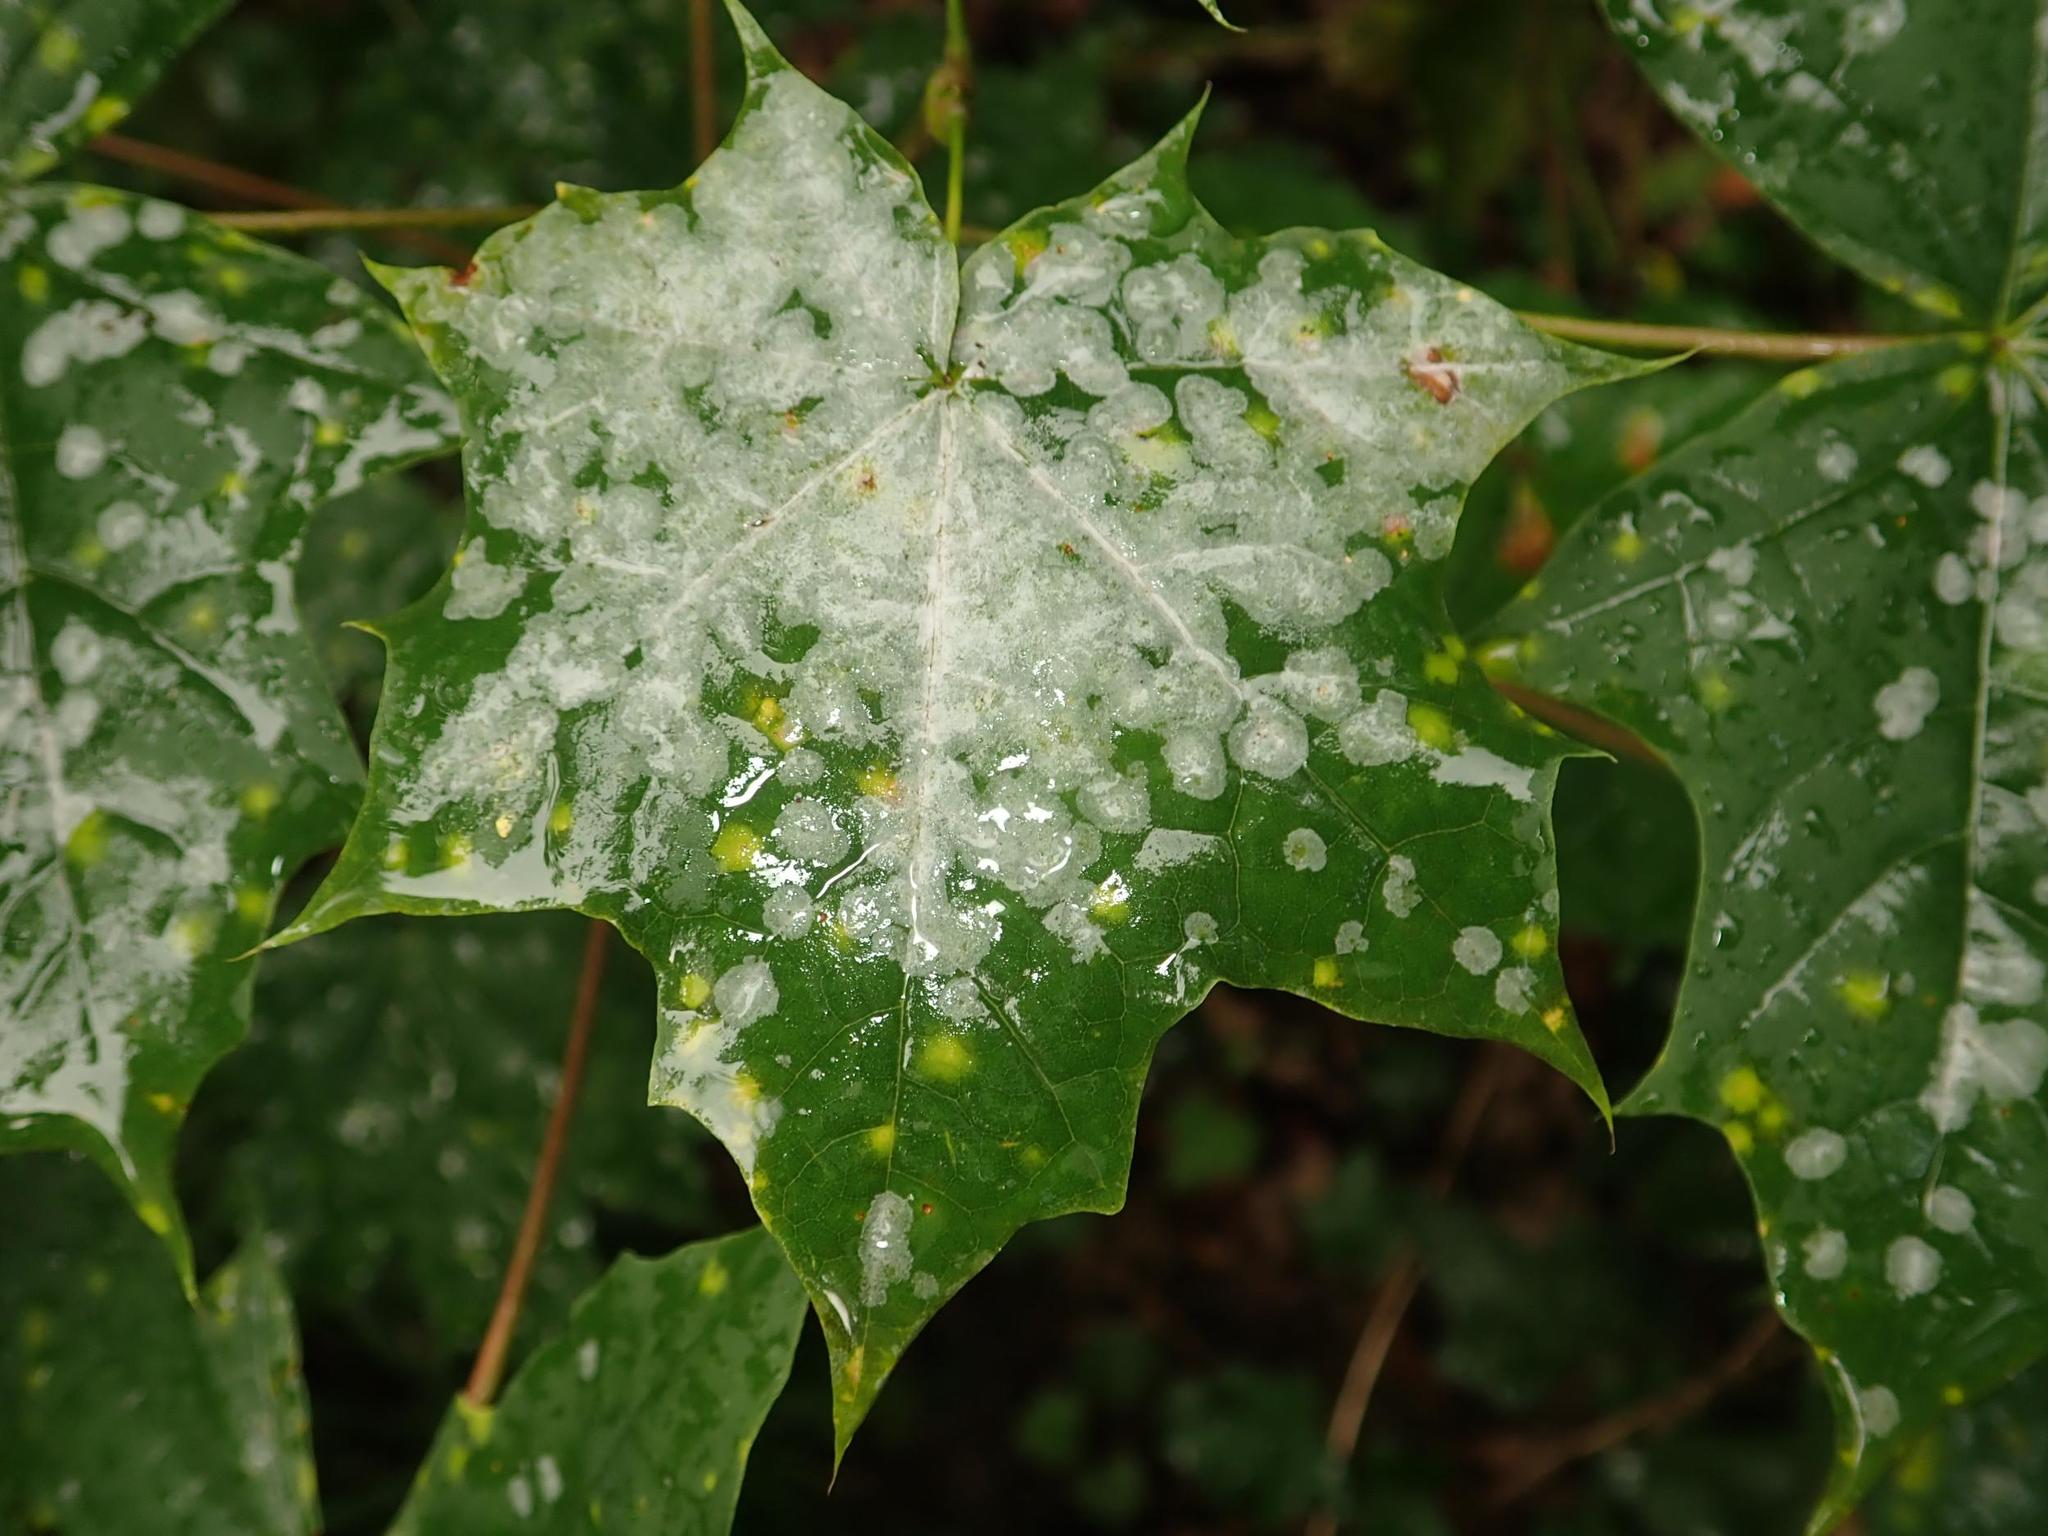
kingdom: Fungi
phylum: Ascomycota
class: Leotiomycetes
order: Helotiales
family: Erysiphaceae
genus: Sawadaea
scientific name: Sawadaea tulasnei
